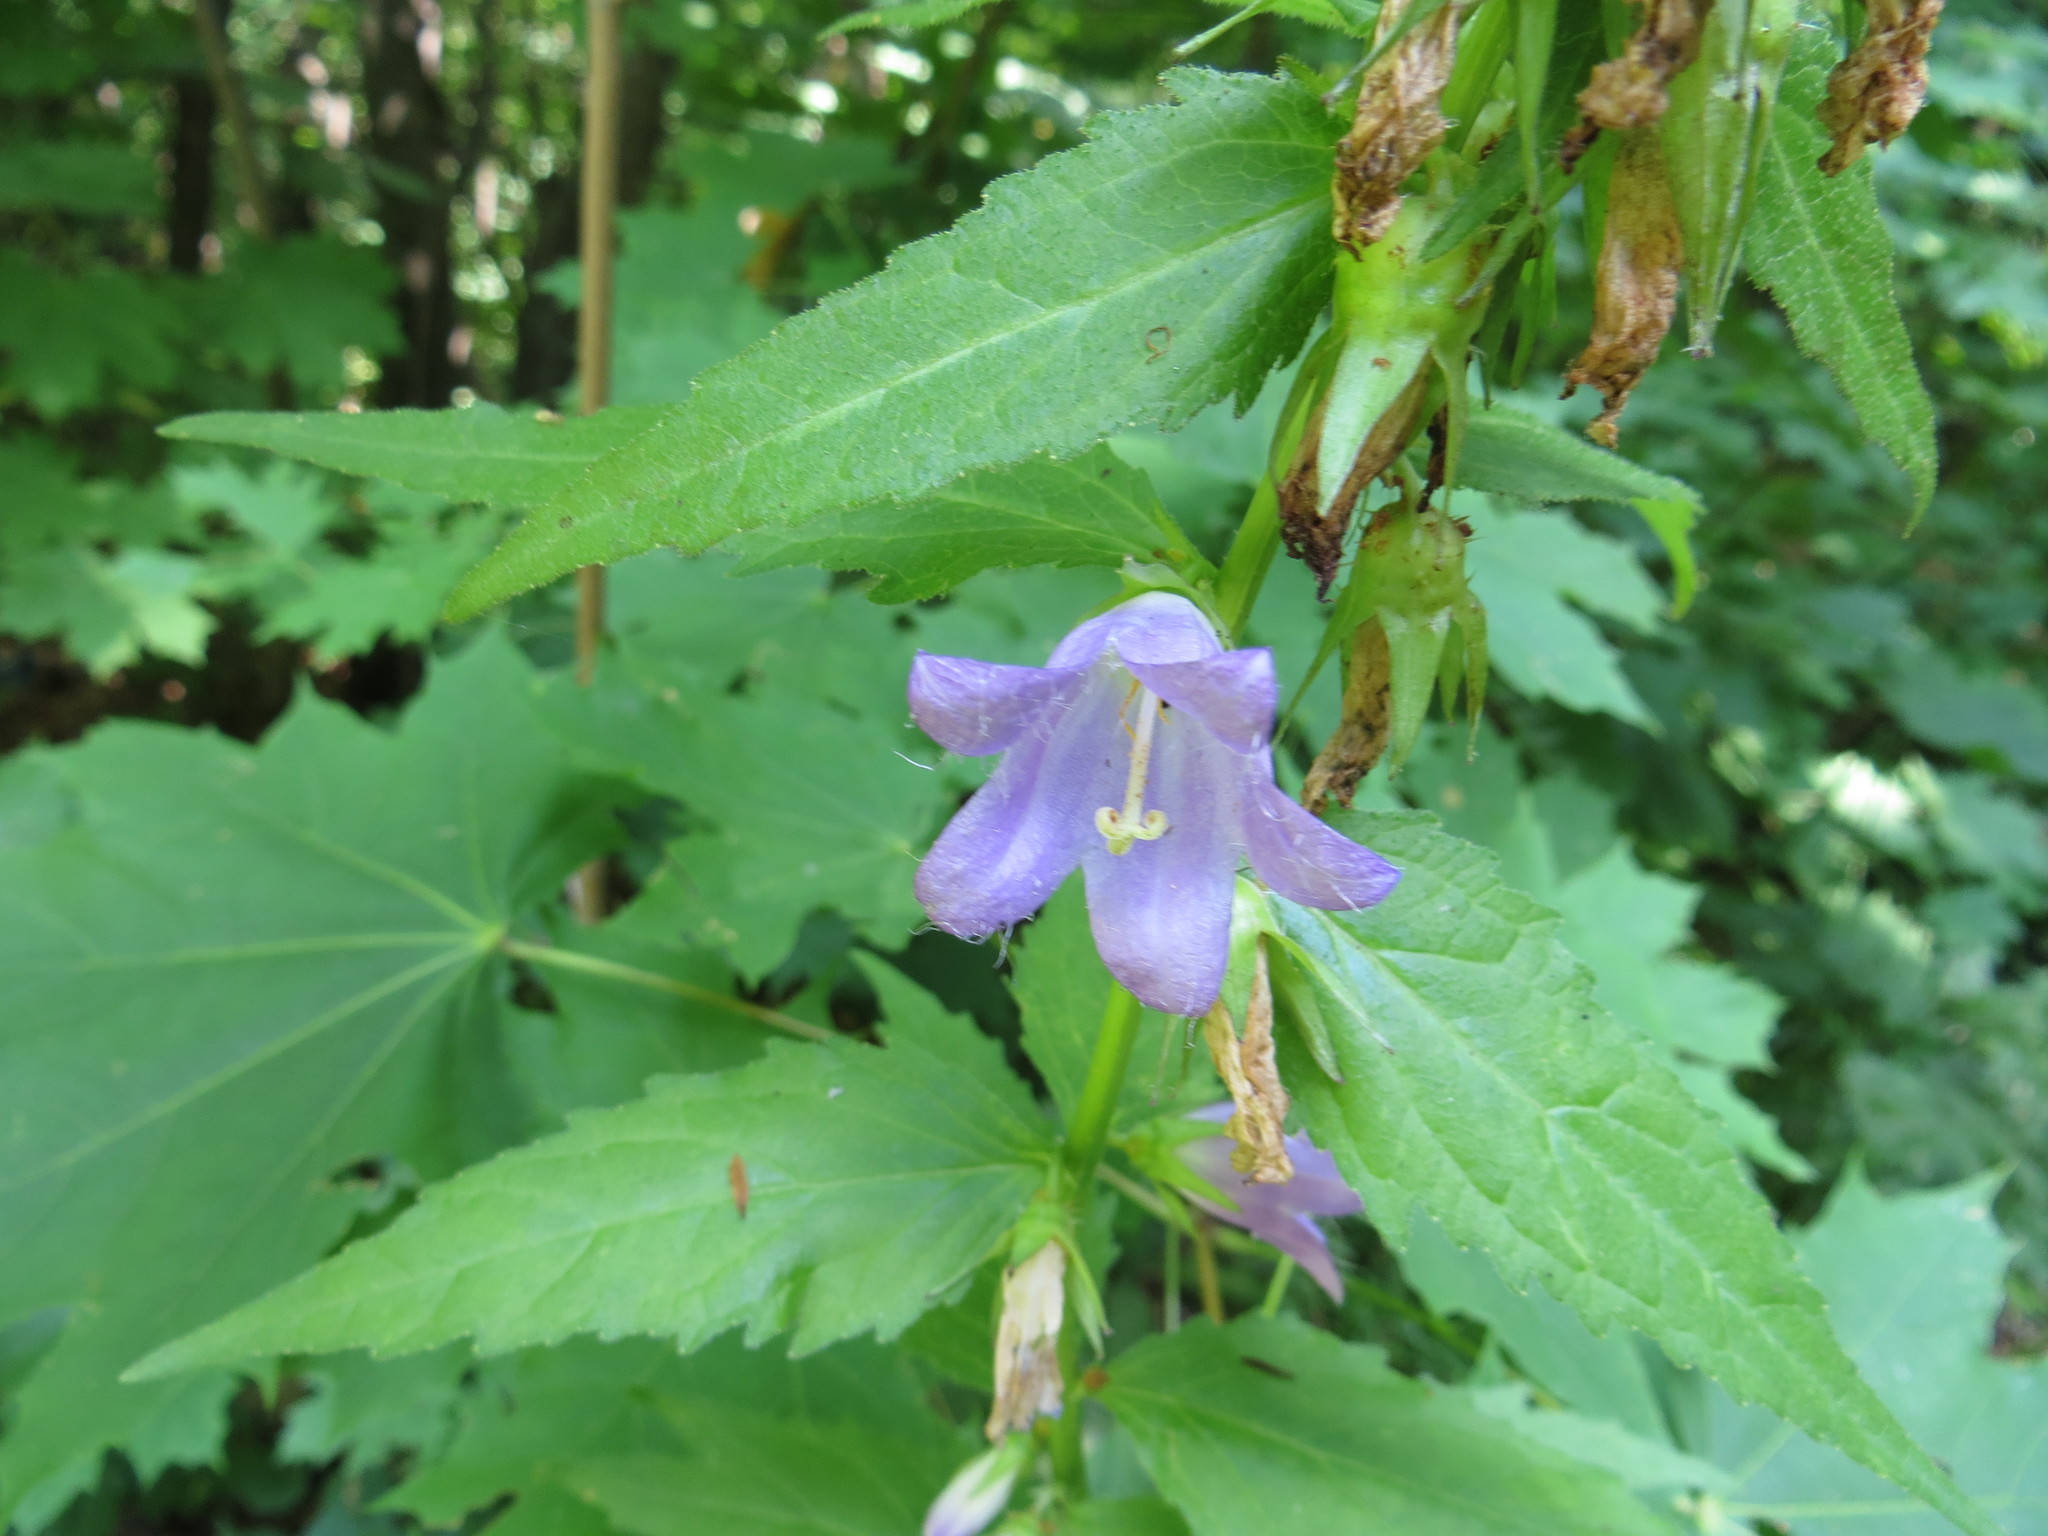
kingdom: Plantae
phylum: Tracheophyta
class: Magnoliopsida
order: Asterales
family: Campanulaceae
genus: Campanula
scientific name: Campanula trachelium
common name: Nettle-leaved bellflower
